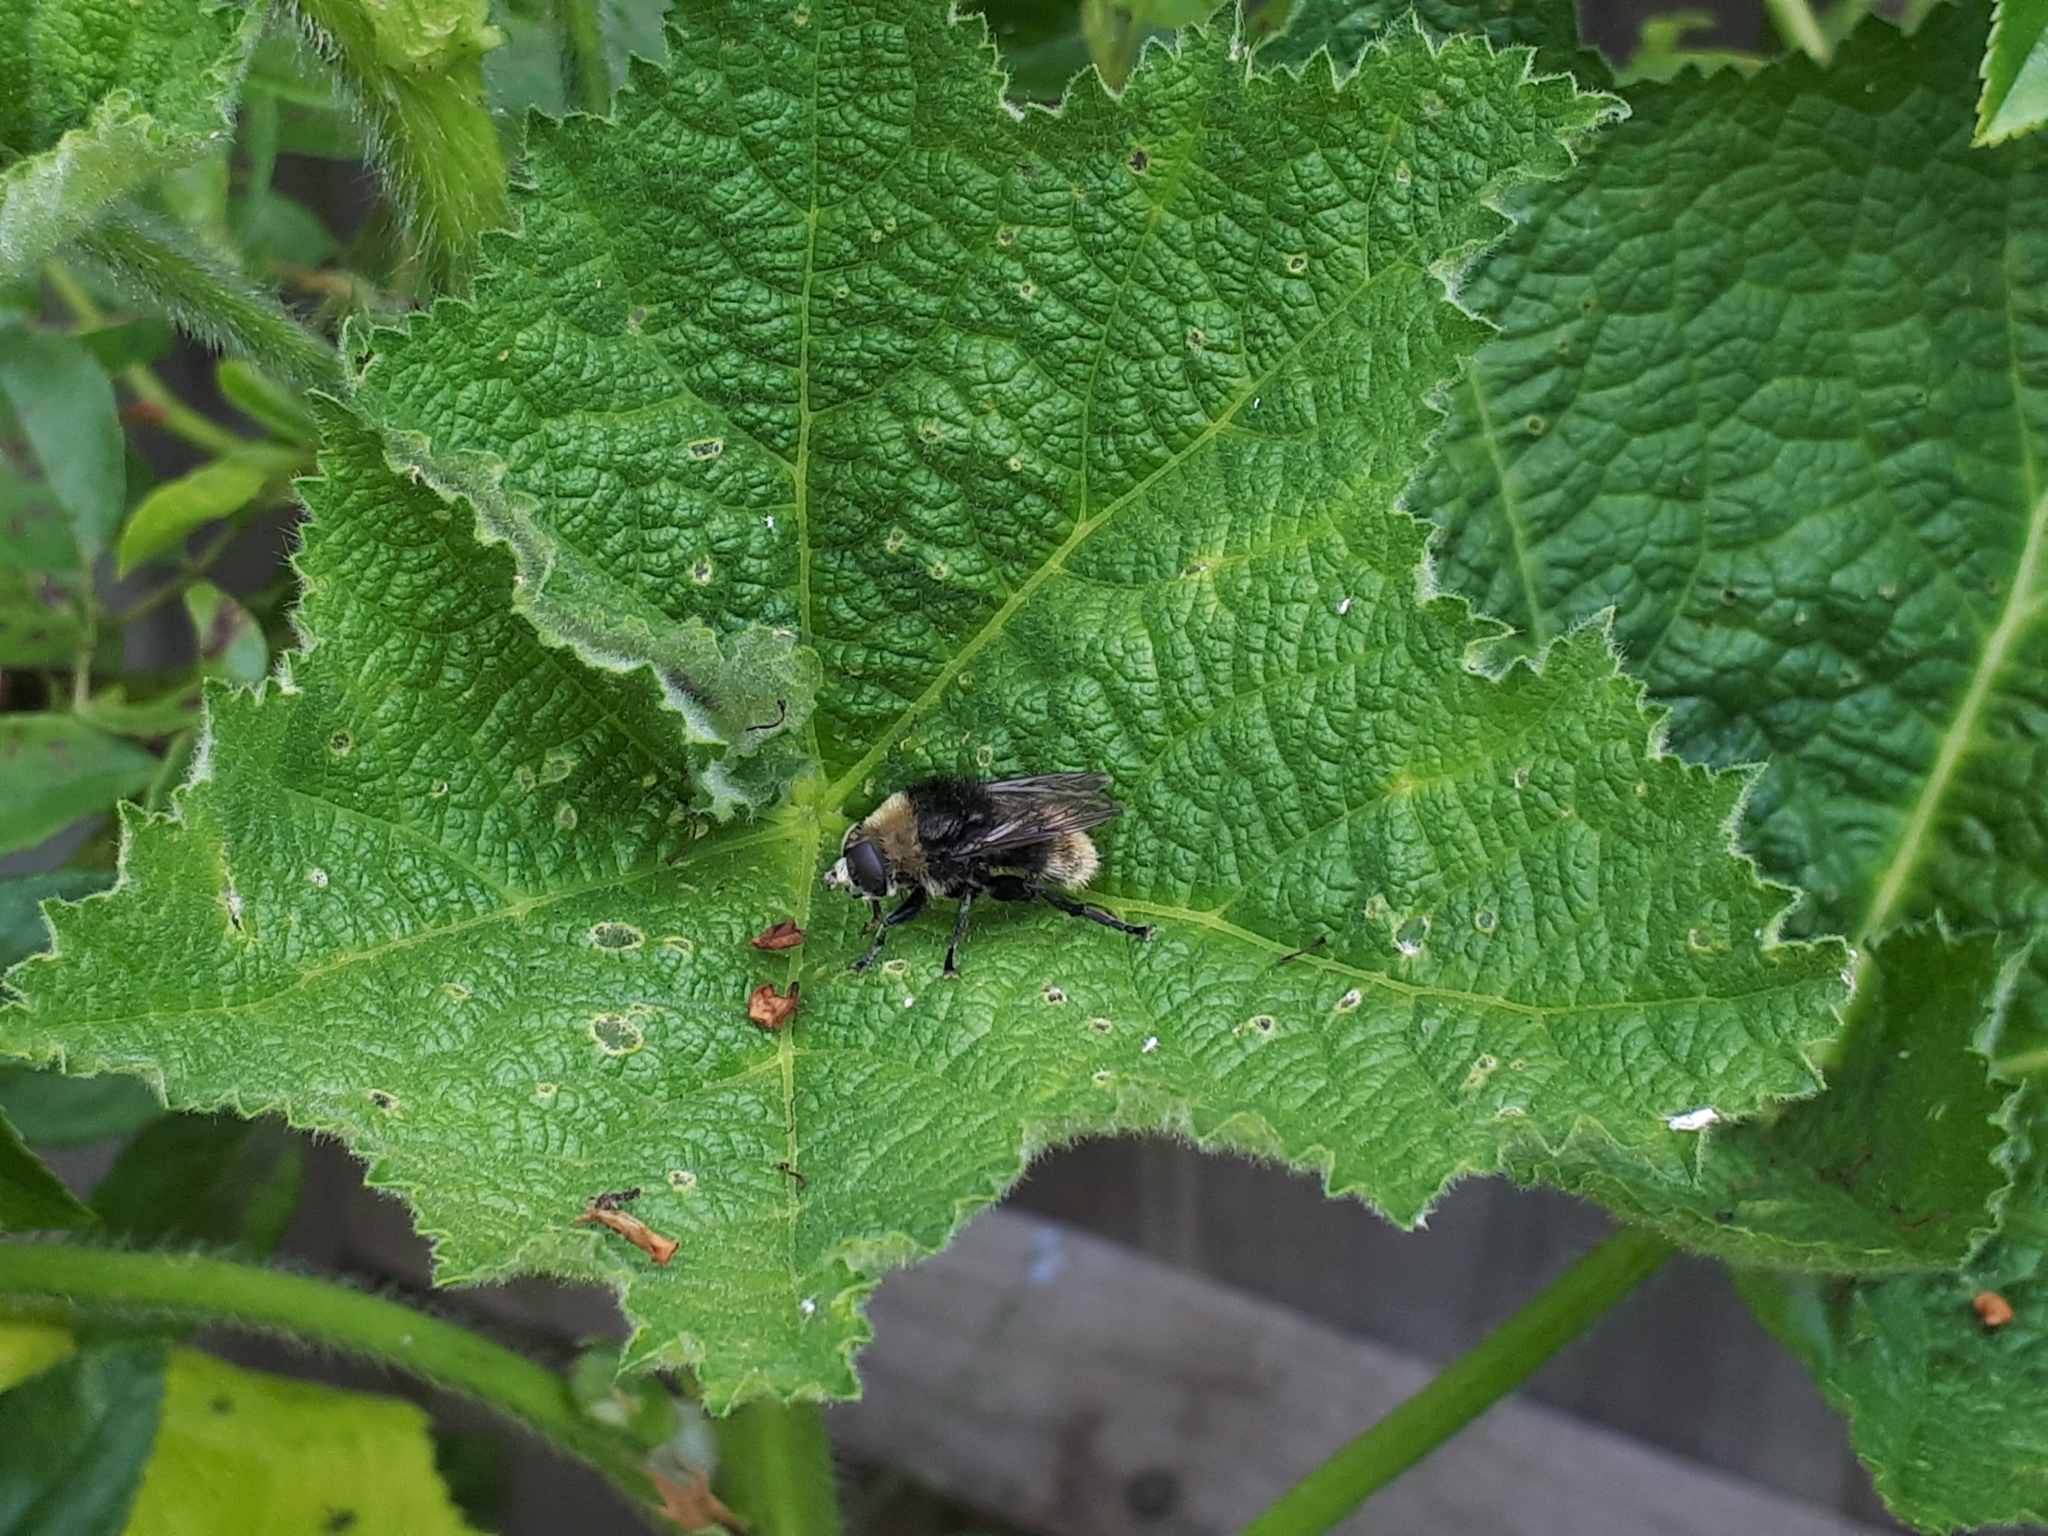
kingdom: Animalia
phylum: Arthropoda
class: Insecta
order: Diptera
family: Syrphidae
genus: Merodon
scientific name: Merodon equestris
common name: Greater bulb-fly
